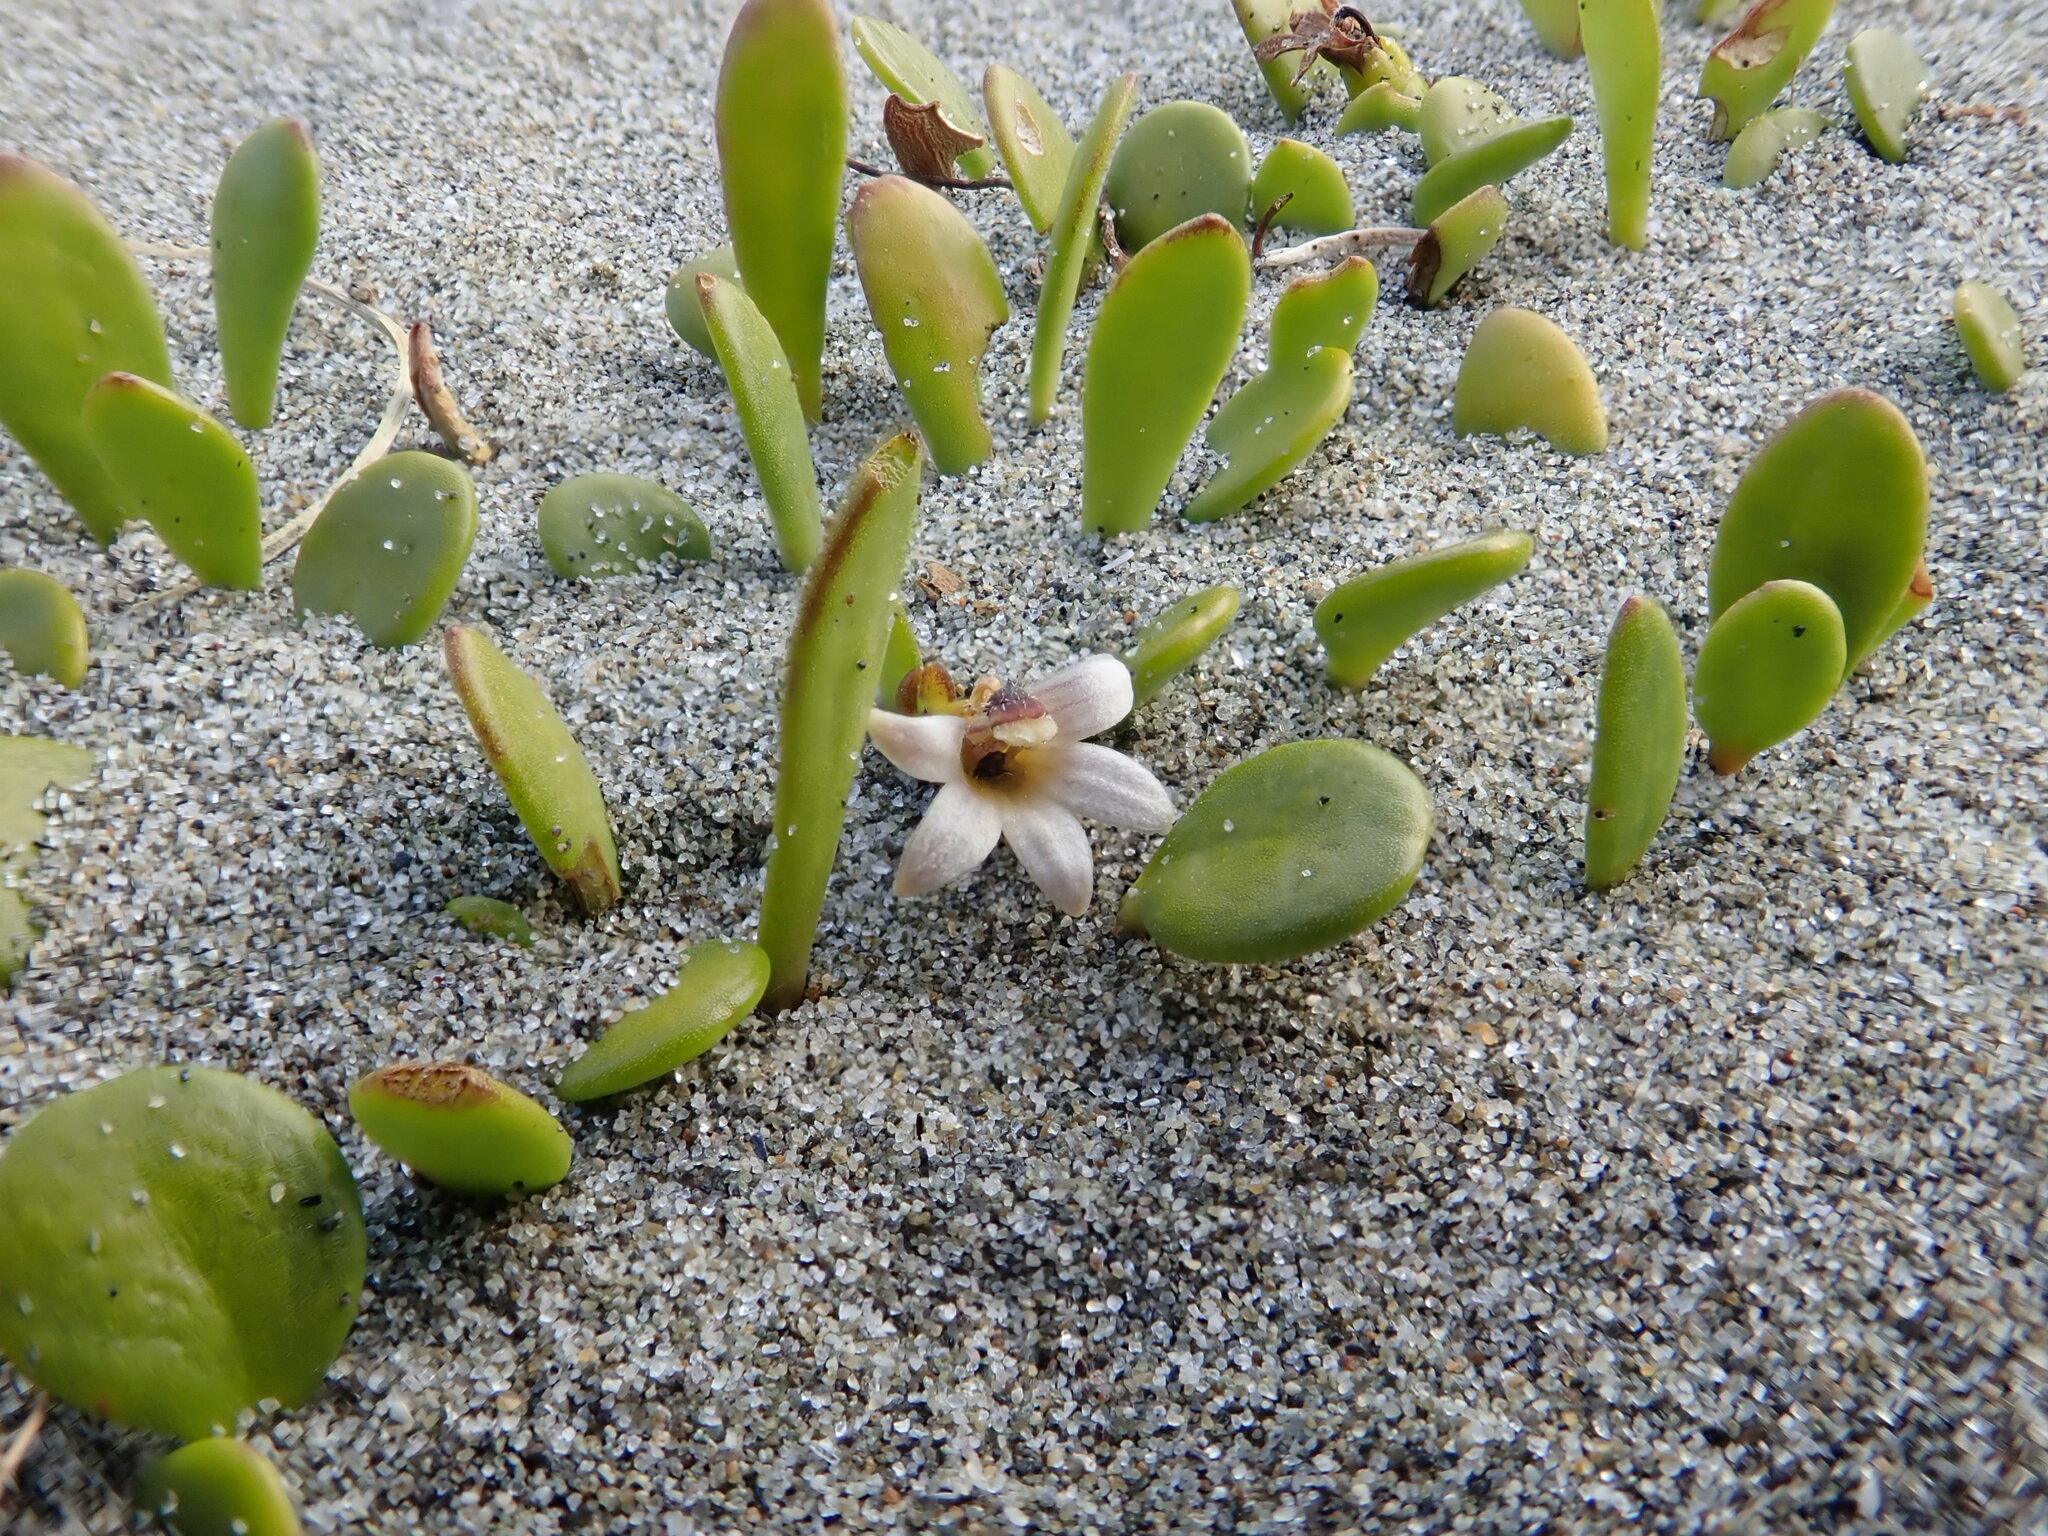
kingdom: Plantae
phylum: Tracheophyta
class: Magnoliopsida
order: Asterales
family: Goodeniaceae
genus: Goodenia
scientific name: Goodenia radicans
